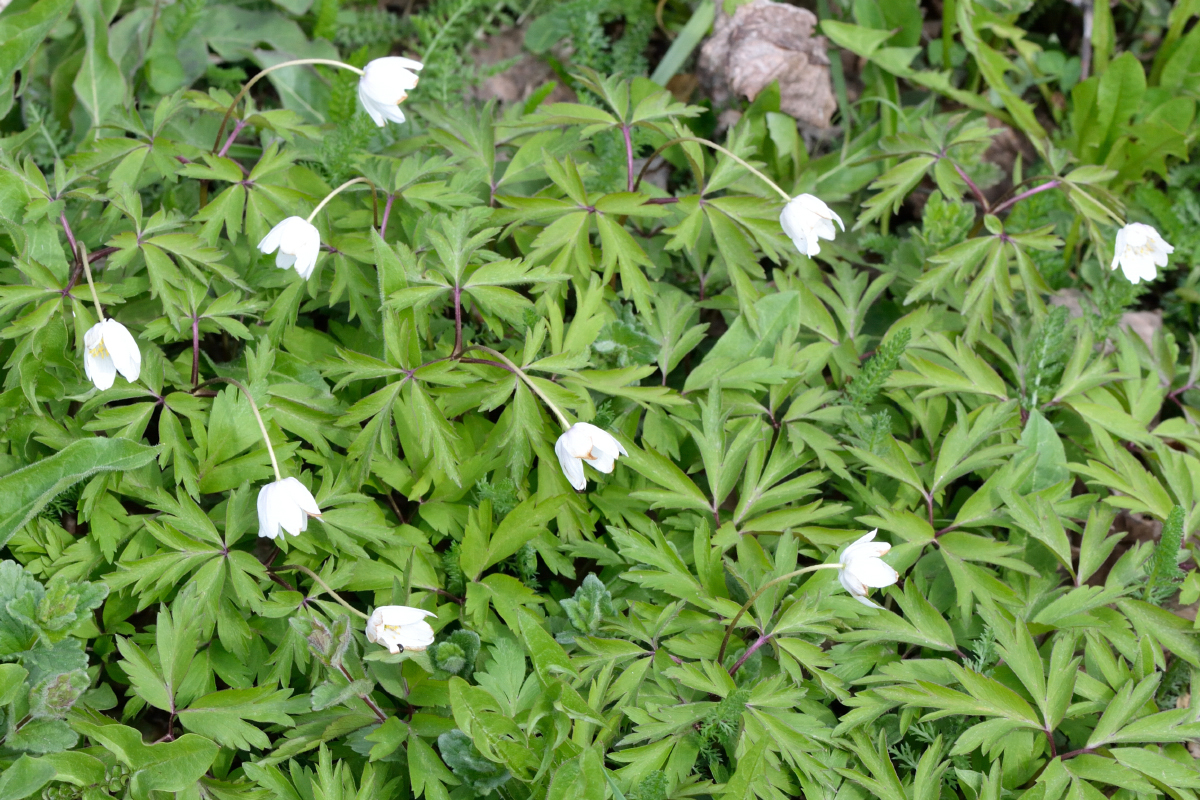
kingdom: Plantae
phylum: Tracheophyta
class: Magnoliopsida
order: Ranunculales
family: Ranunculaceae
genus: Anemone
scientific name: Anemone nemorosa
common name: Wood anemone
